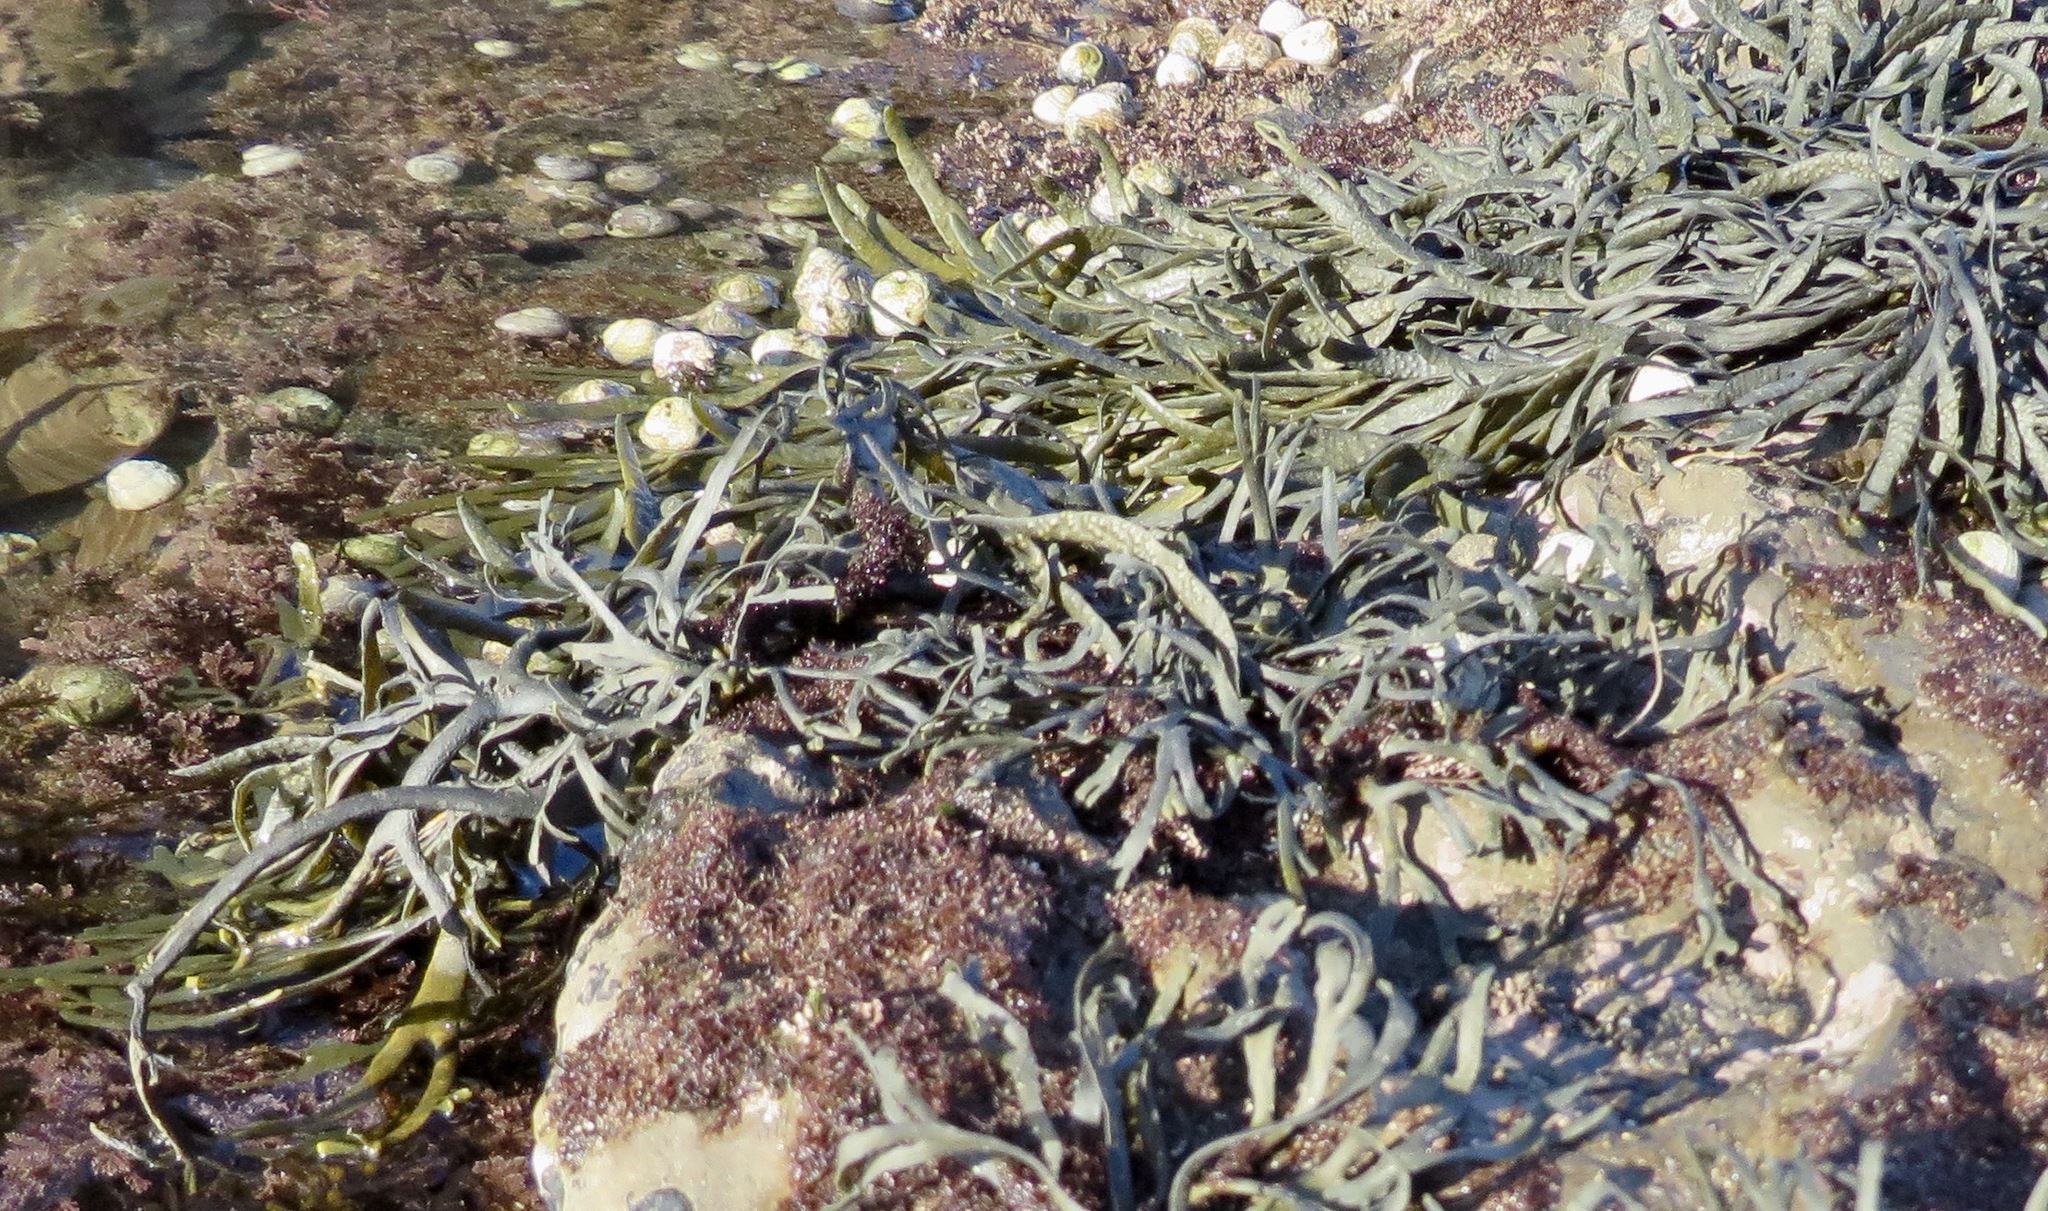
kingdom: Chromista
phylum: Ochrophyta
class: Phaeophyceae
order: Fucales
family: Fucaceae
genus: Silvetia
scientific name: Silvetia
